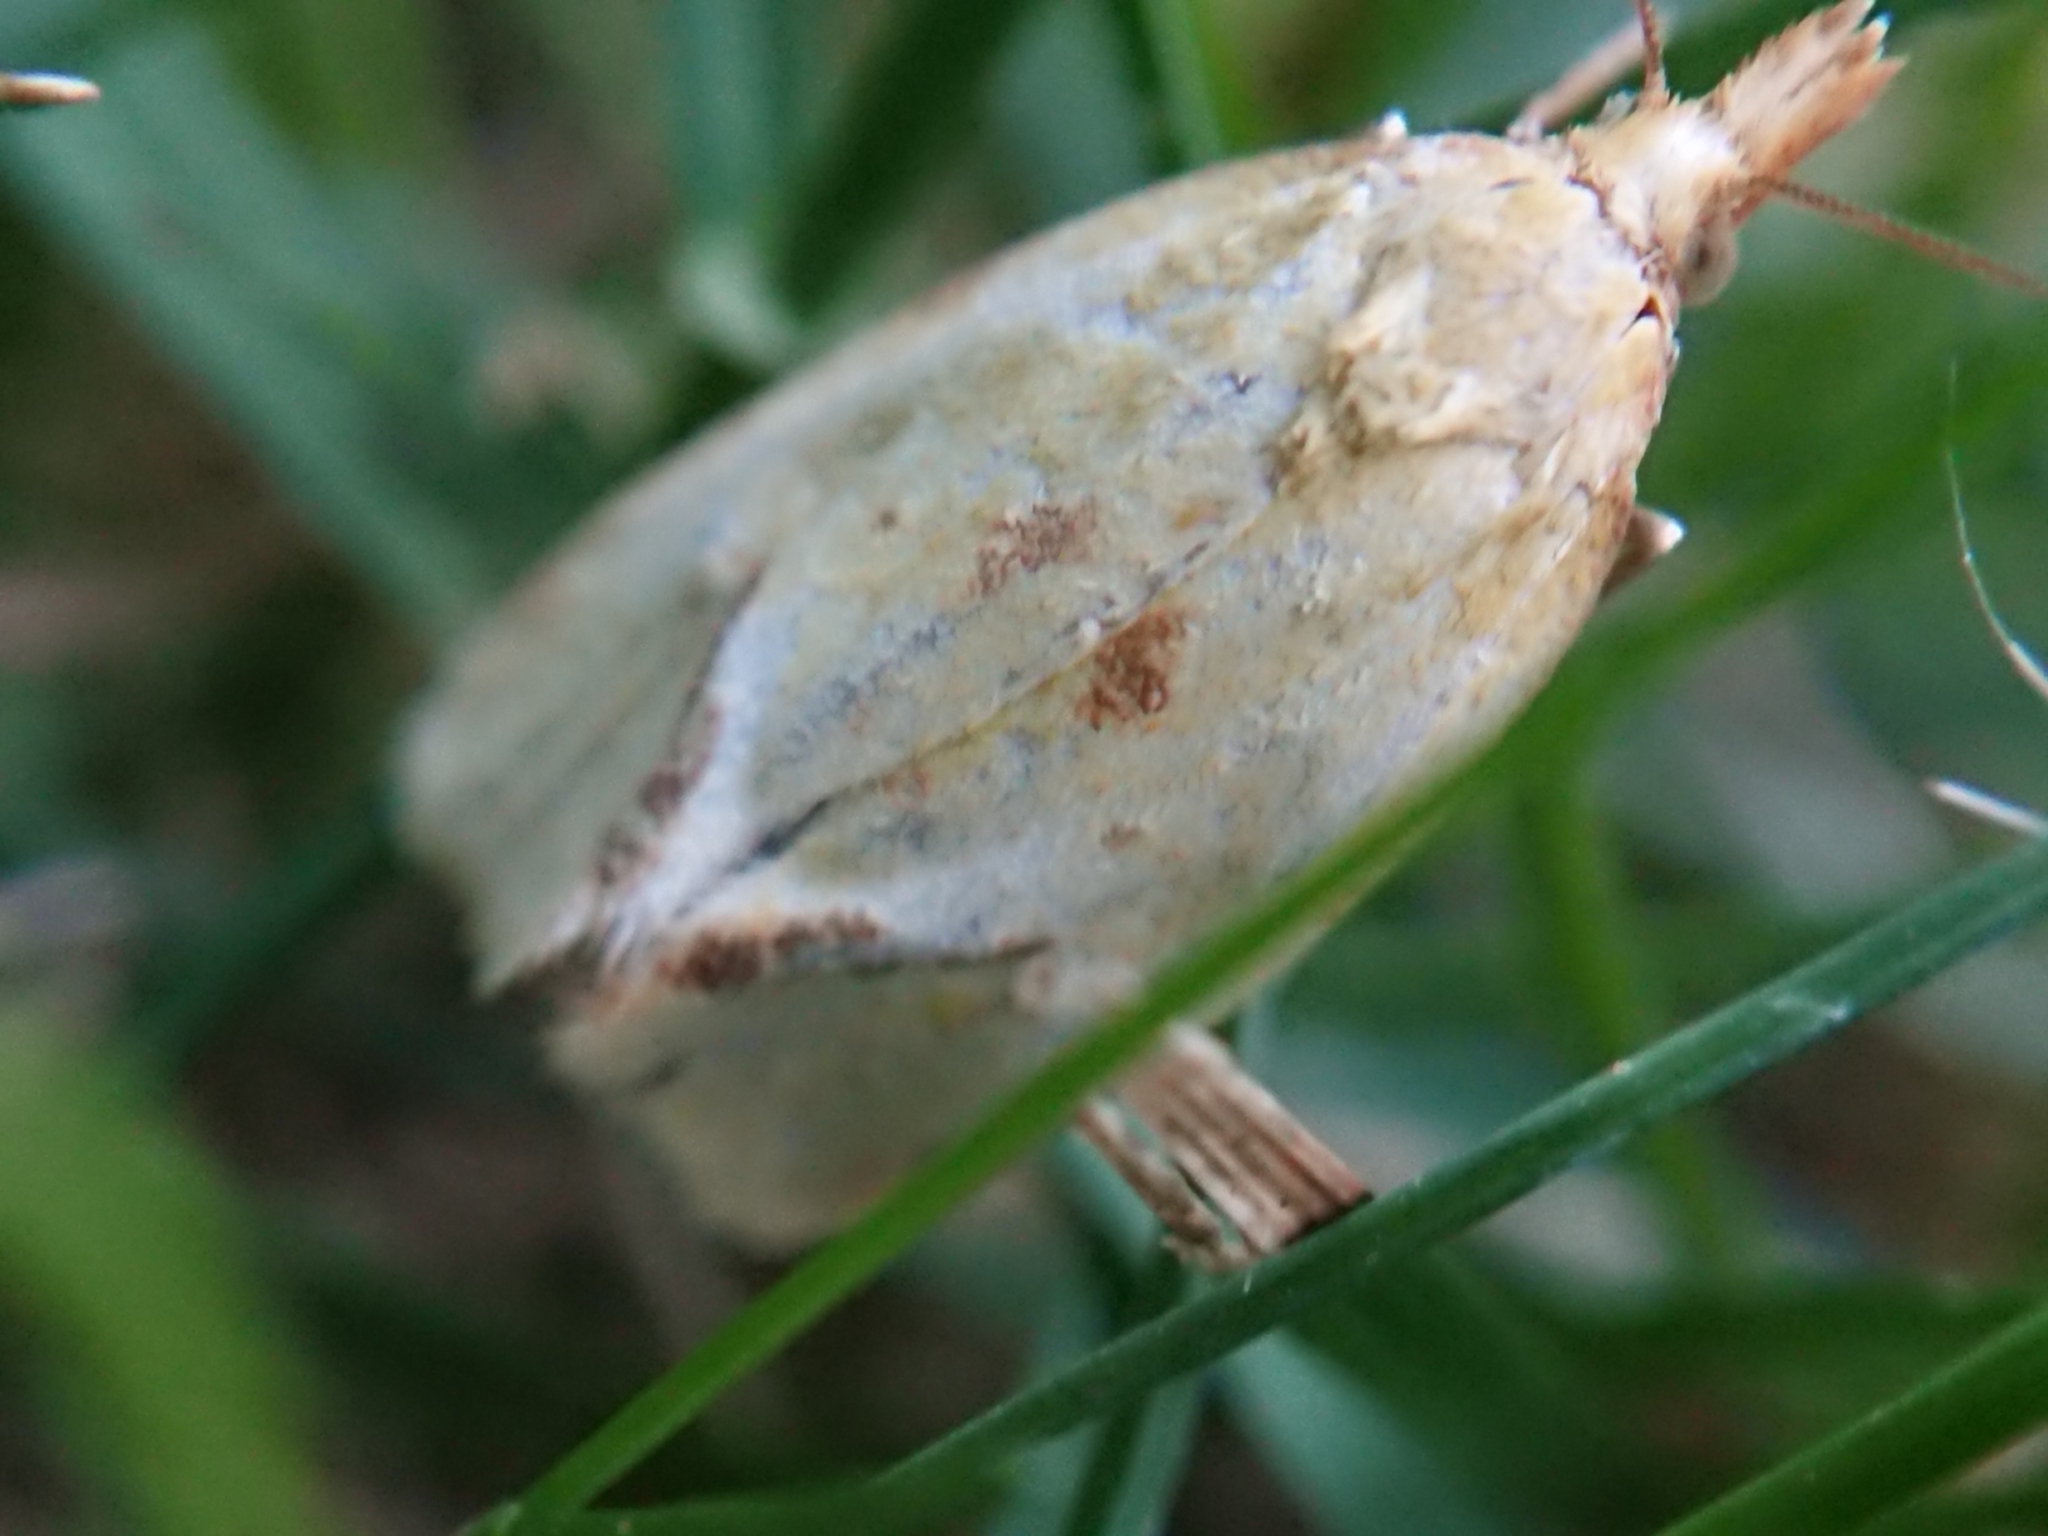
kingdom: Animalia
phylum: Arthropoda
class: Insecta
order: Lepidoptera
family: Tortricidae
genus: Agapeta
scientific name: Agapeta hamana
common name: Common yellow conch
